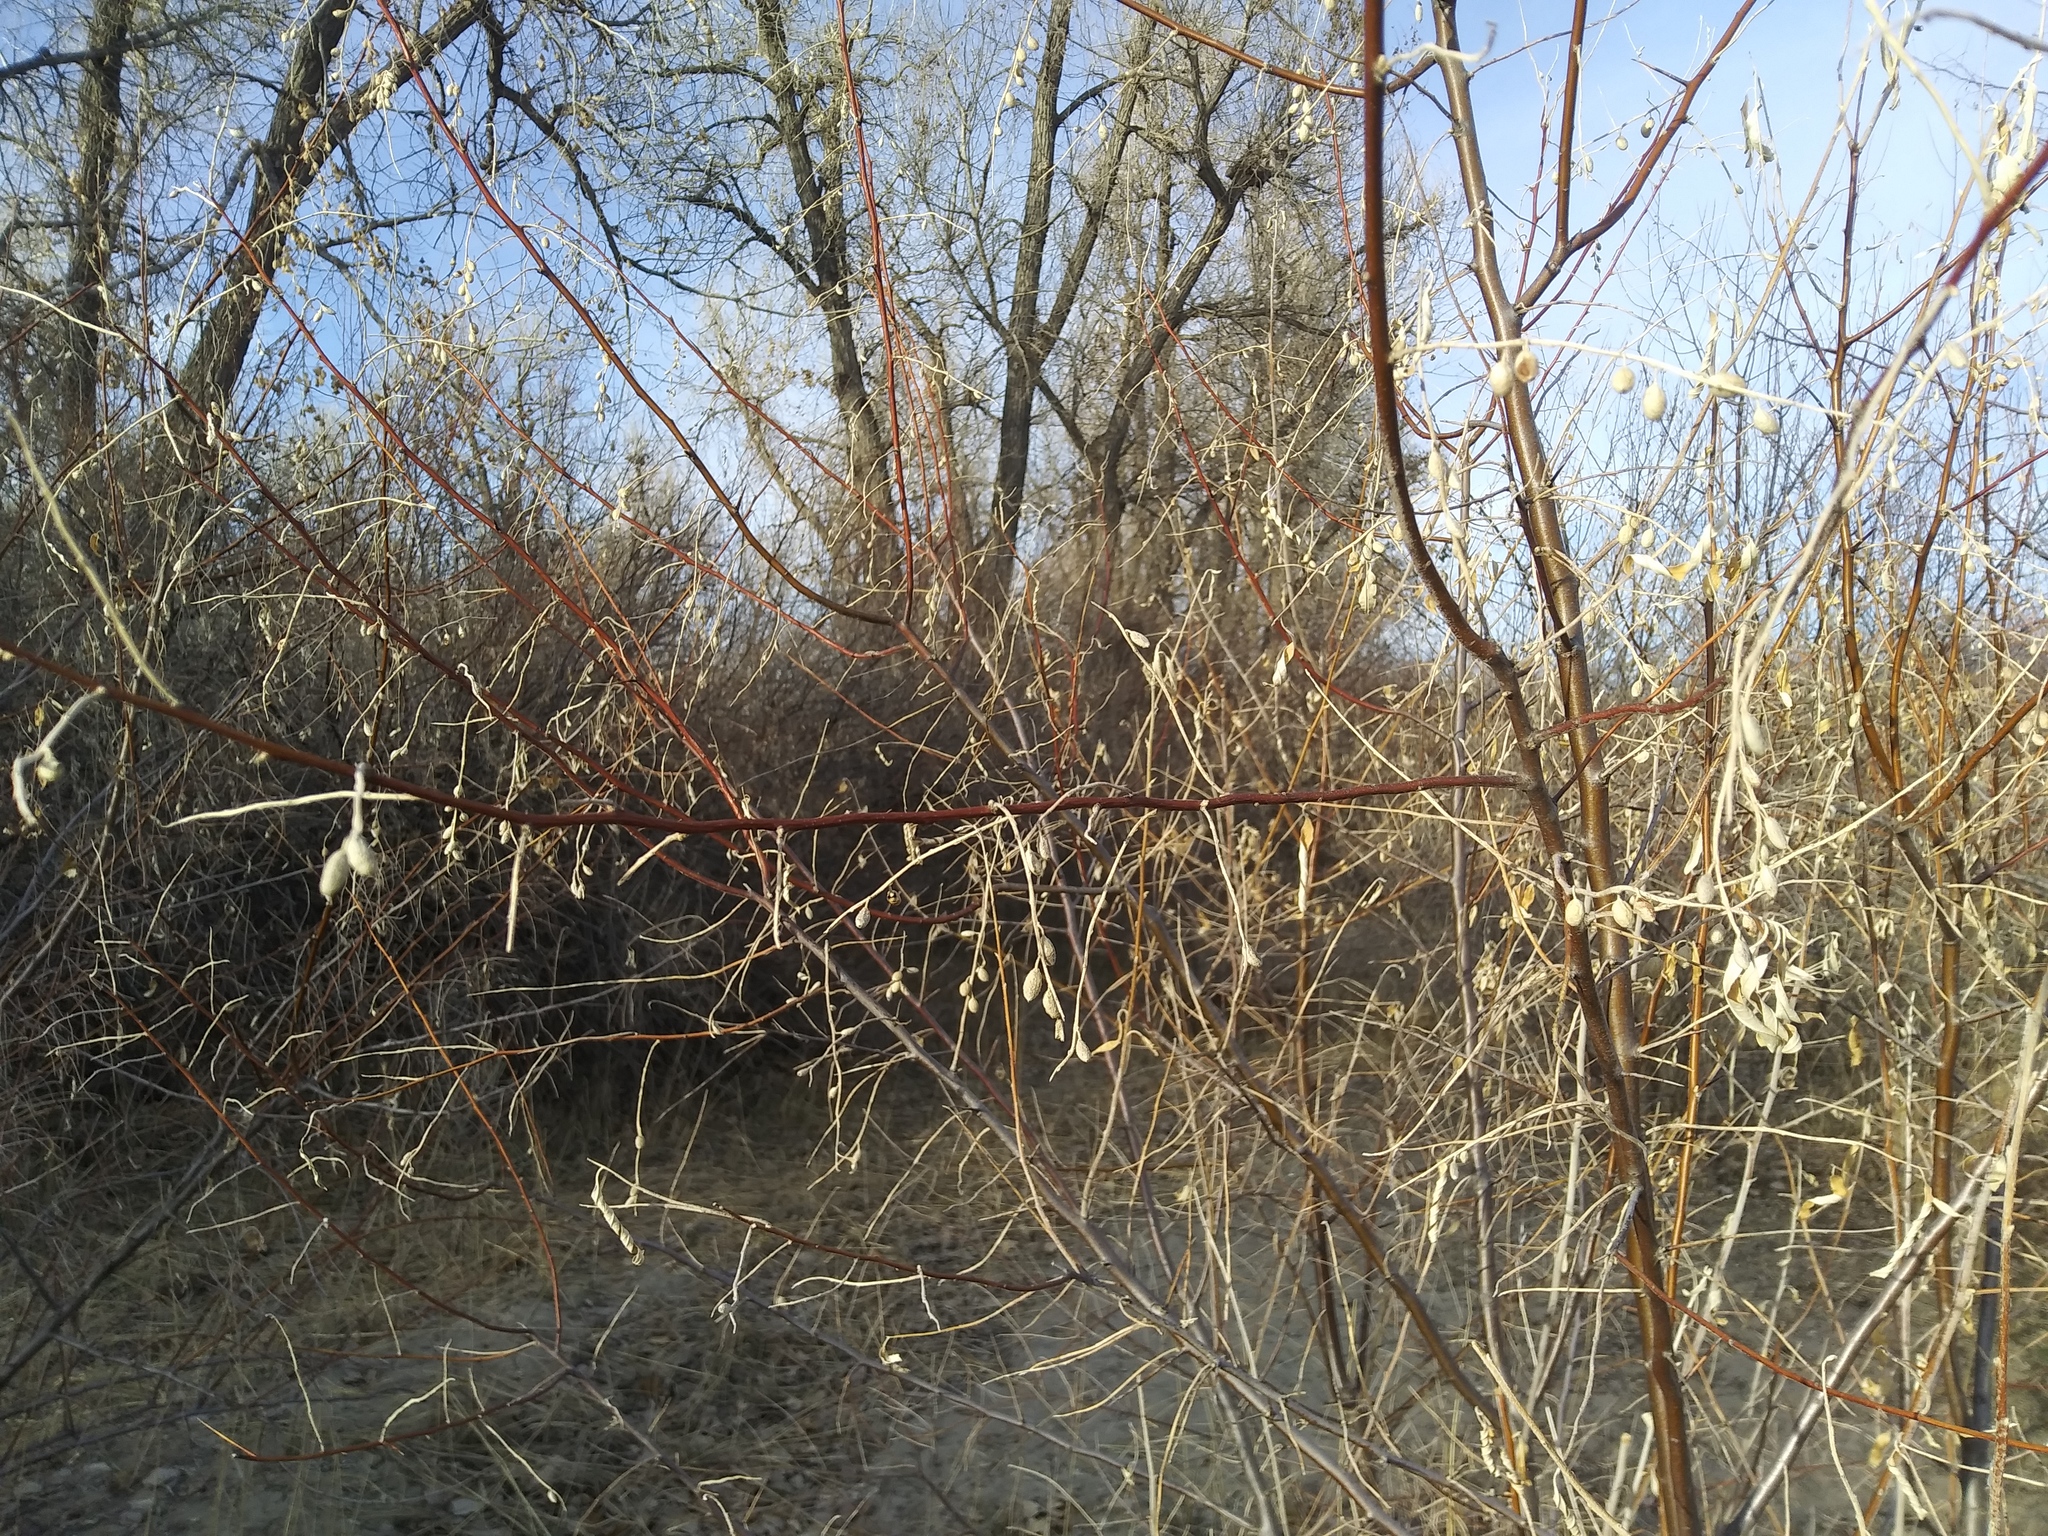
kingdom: Plantae
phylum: Tracheophyta
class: Magnoliopsida
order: Rosales
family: Elaeagnaceae
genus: Elaeagnus
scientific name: Elaeagnus angustifolia
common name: Russian olive
